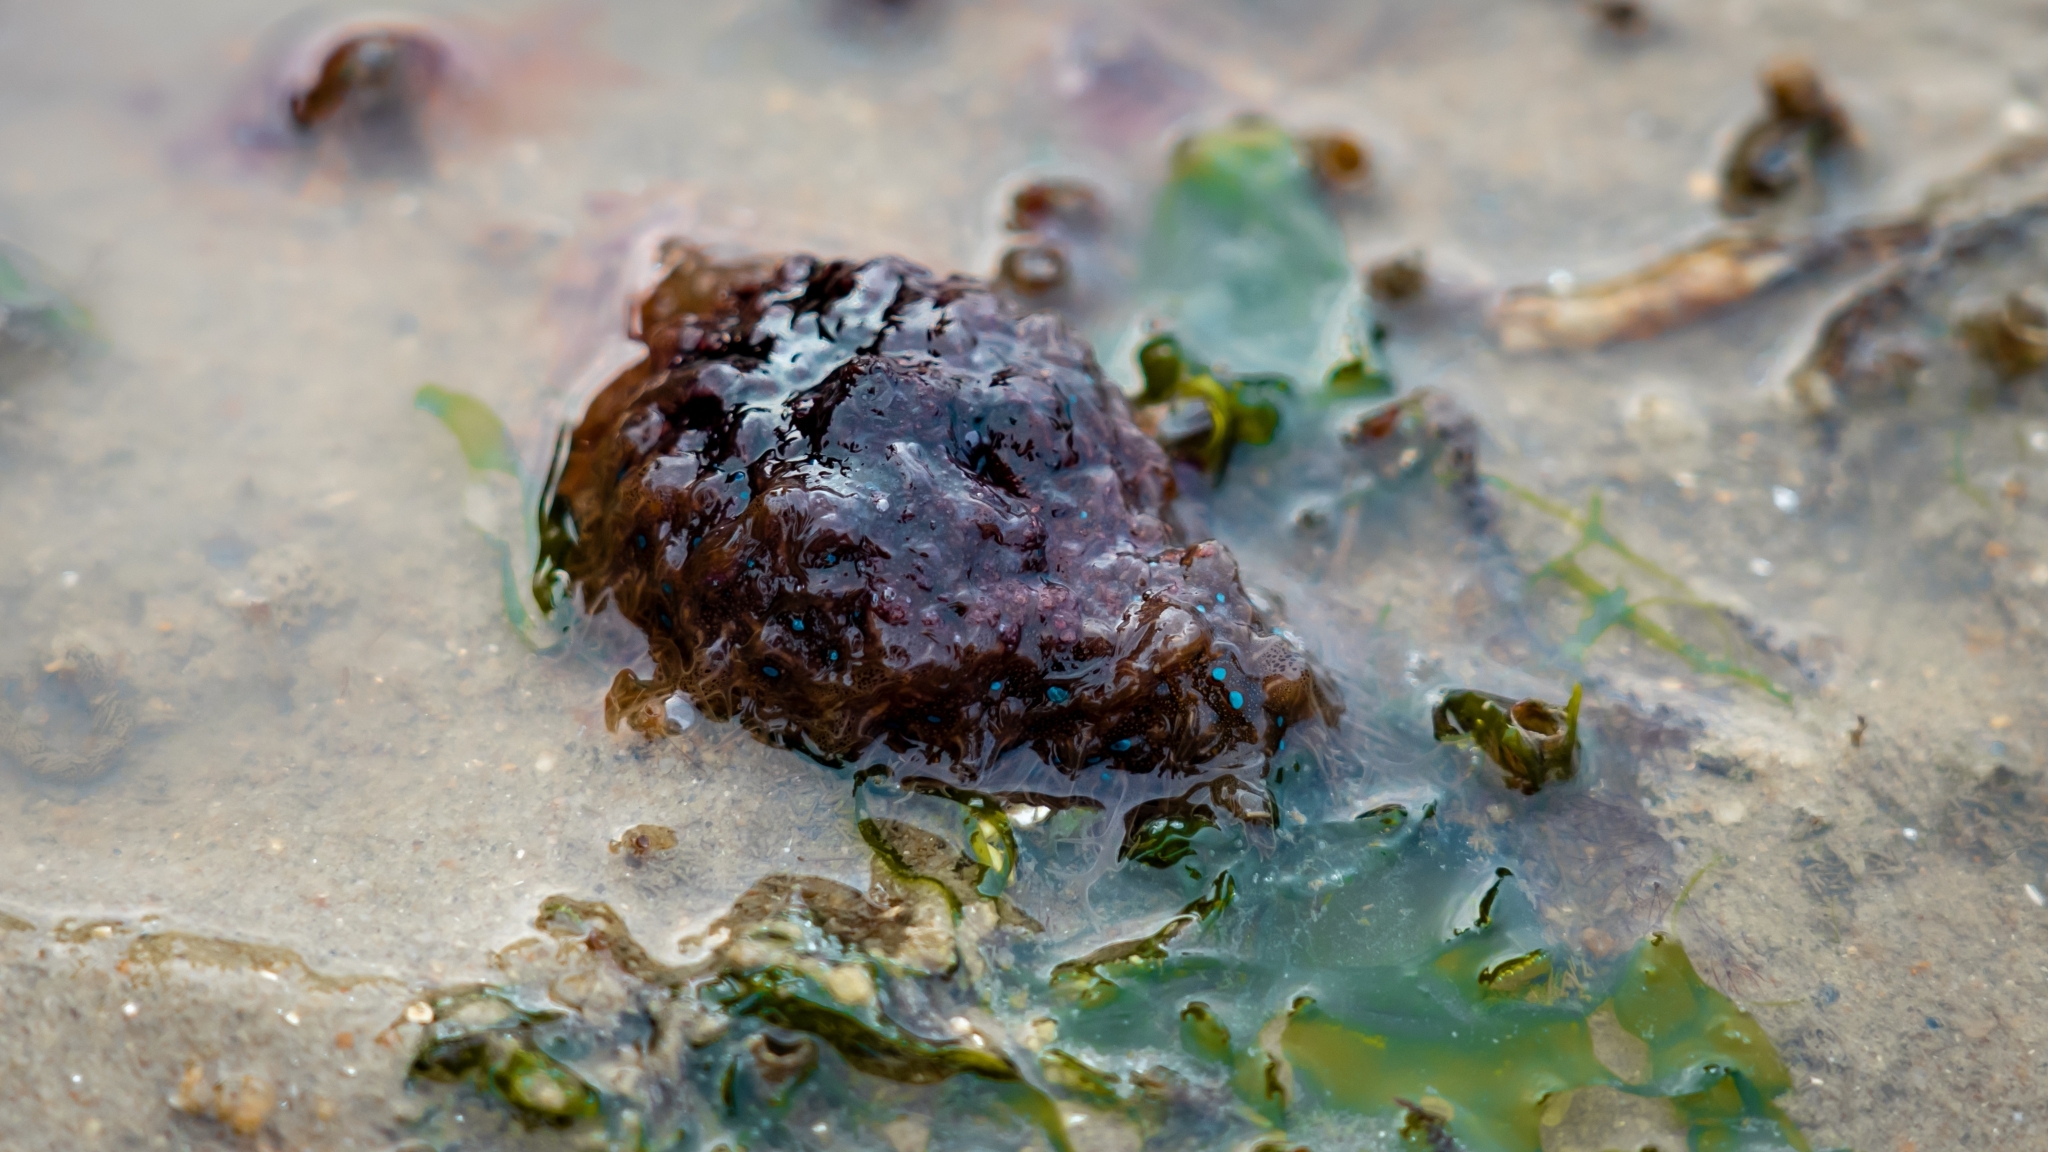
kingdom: Animalia
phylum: Mollusca
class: Gastropoda
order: Aplysiida
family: Aplysiidae
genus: Bursatella
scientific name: Bursatella leachii
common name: Shaggy sea hare
